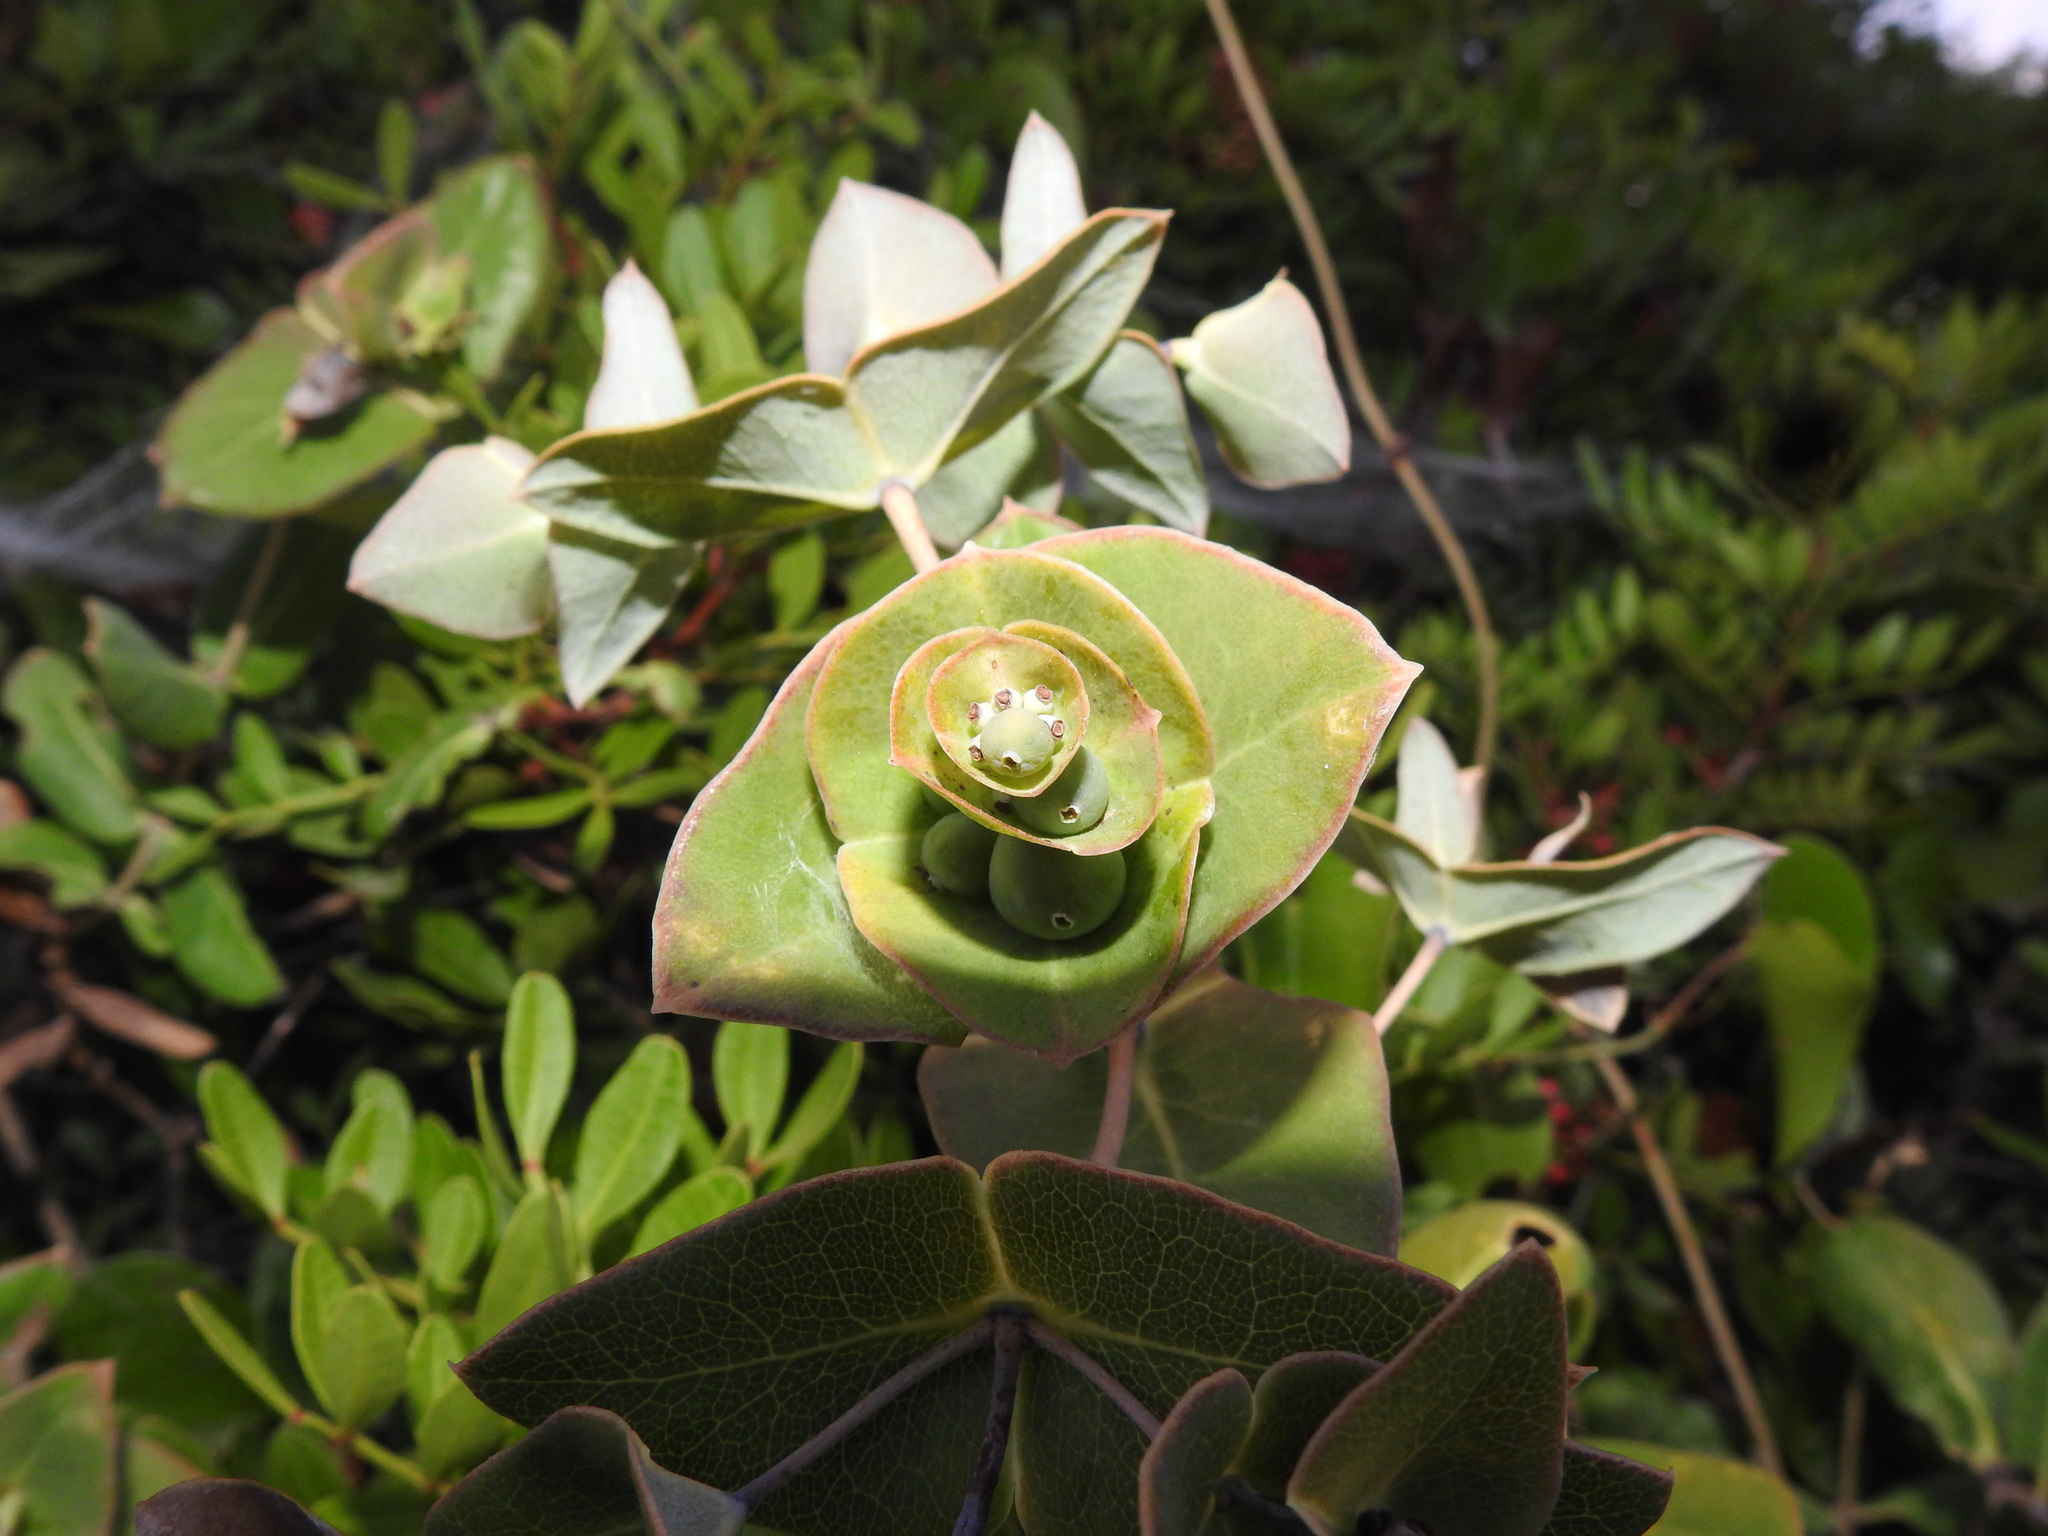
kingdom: Plantae
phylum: Tracheophyta
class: Magnoliopsida
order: Dipsacales
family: Caprifoliaceae
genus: Lonicera
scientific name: Lonicera implexa
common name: Minorca honeysuckle
